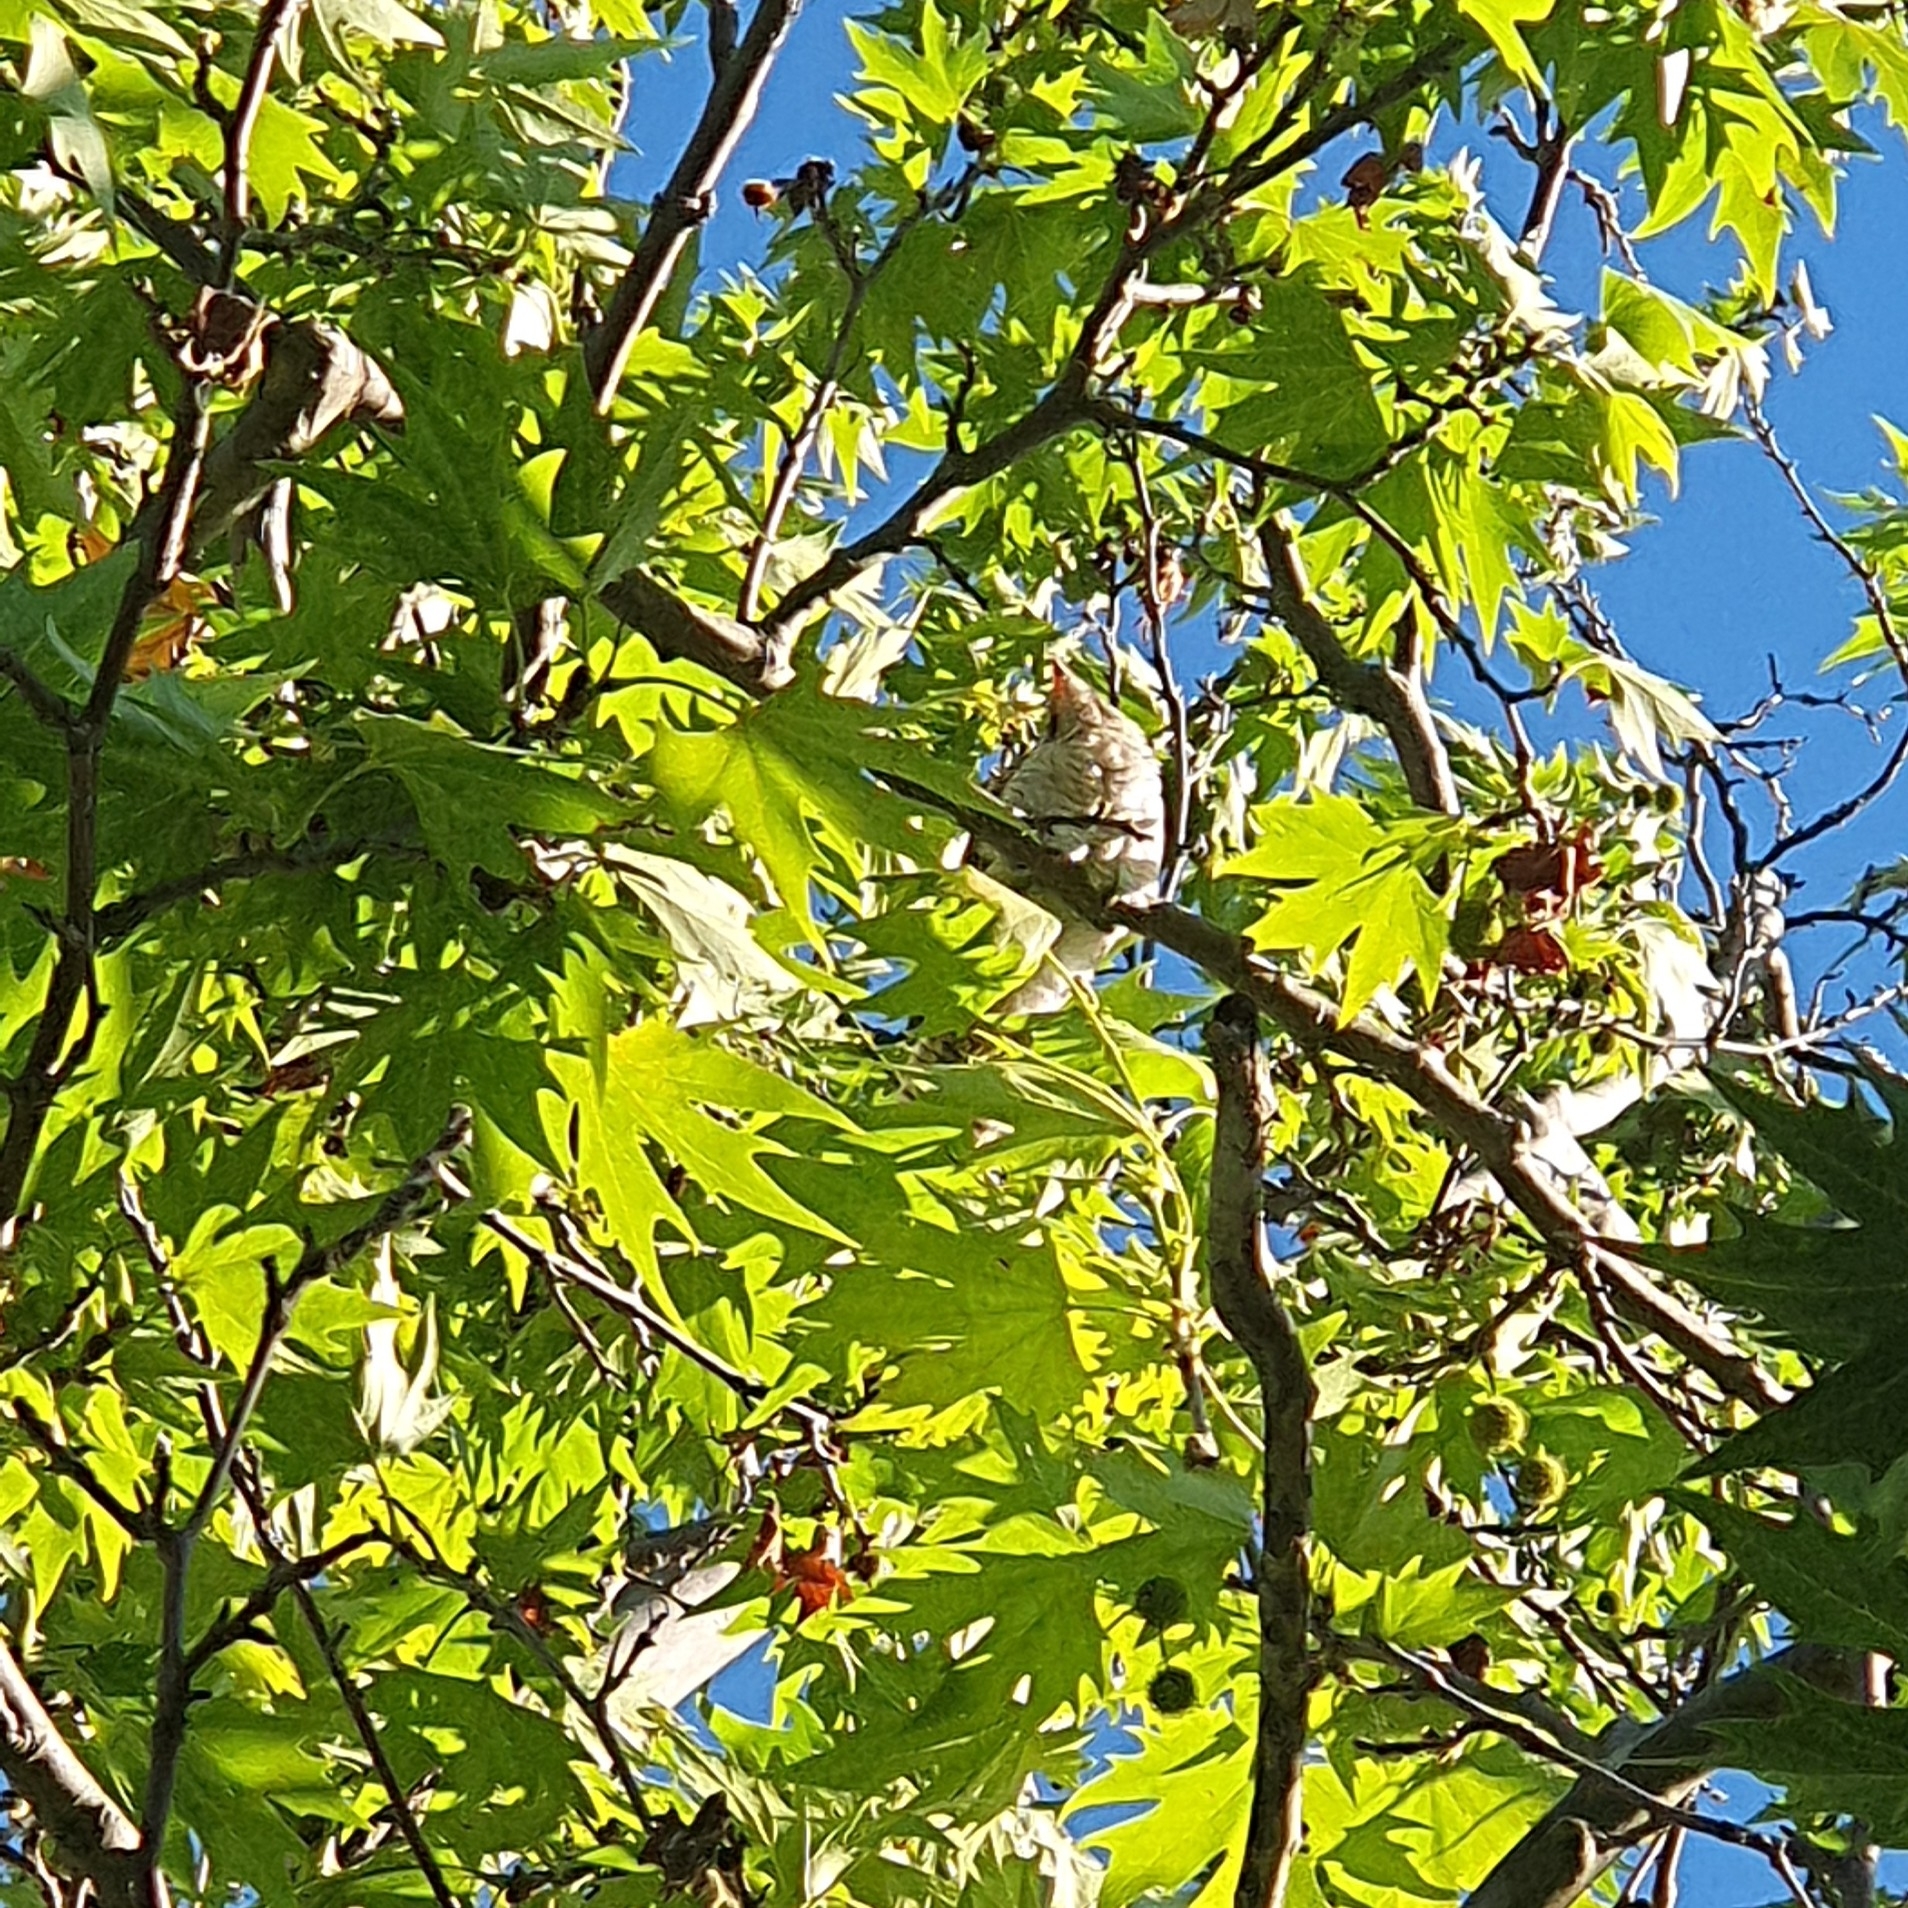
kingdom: Animalia
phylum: Chordata
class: Aves
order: Cuculiformes
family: Cuculidae
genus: Eudynamys
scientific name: Eudynamys orientalis
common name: Pacific koel
